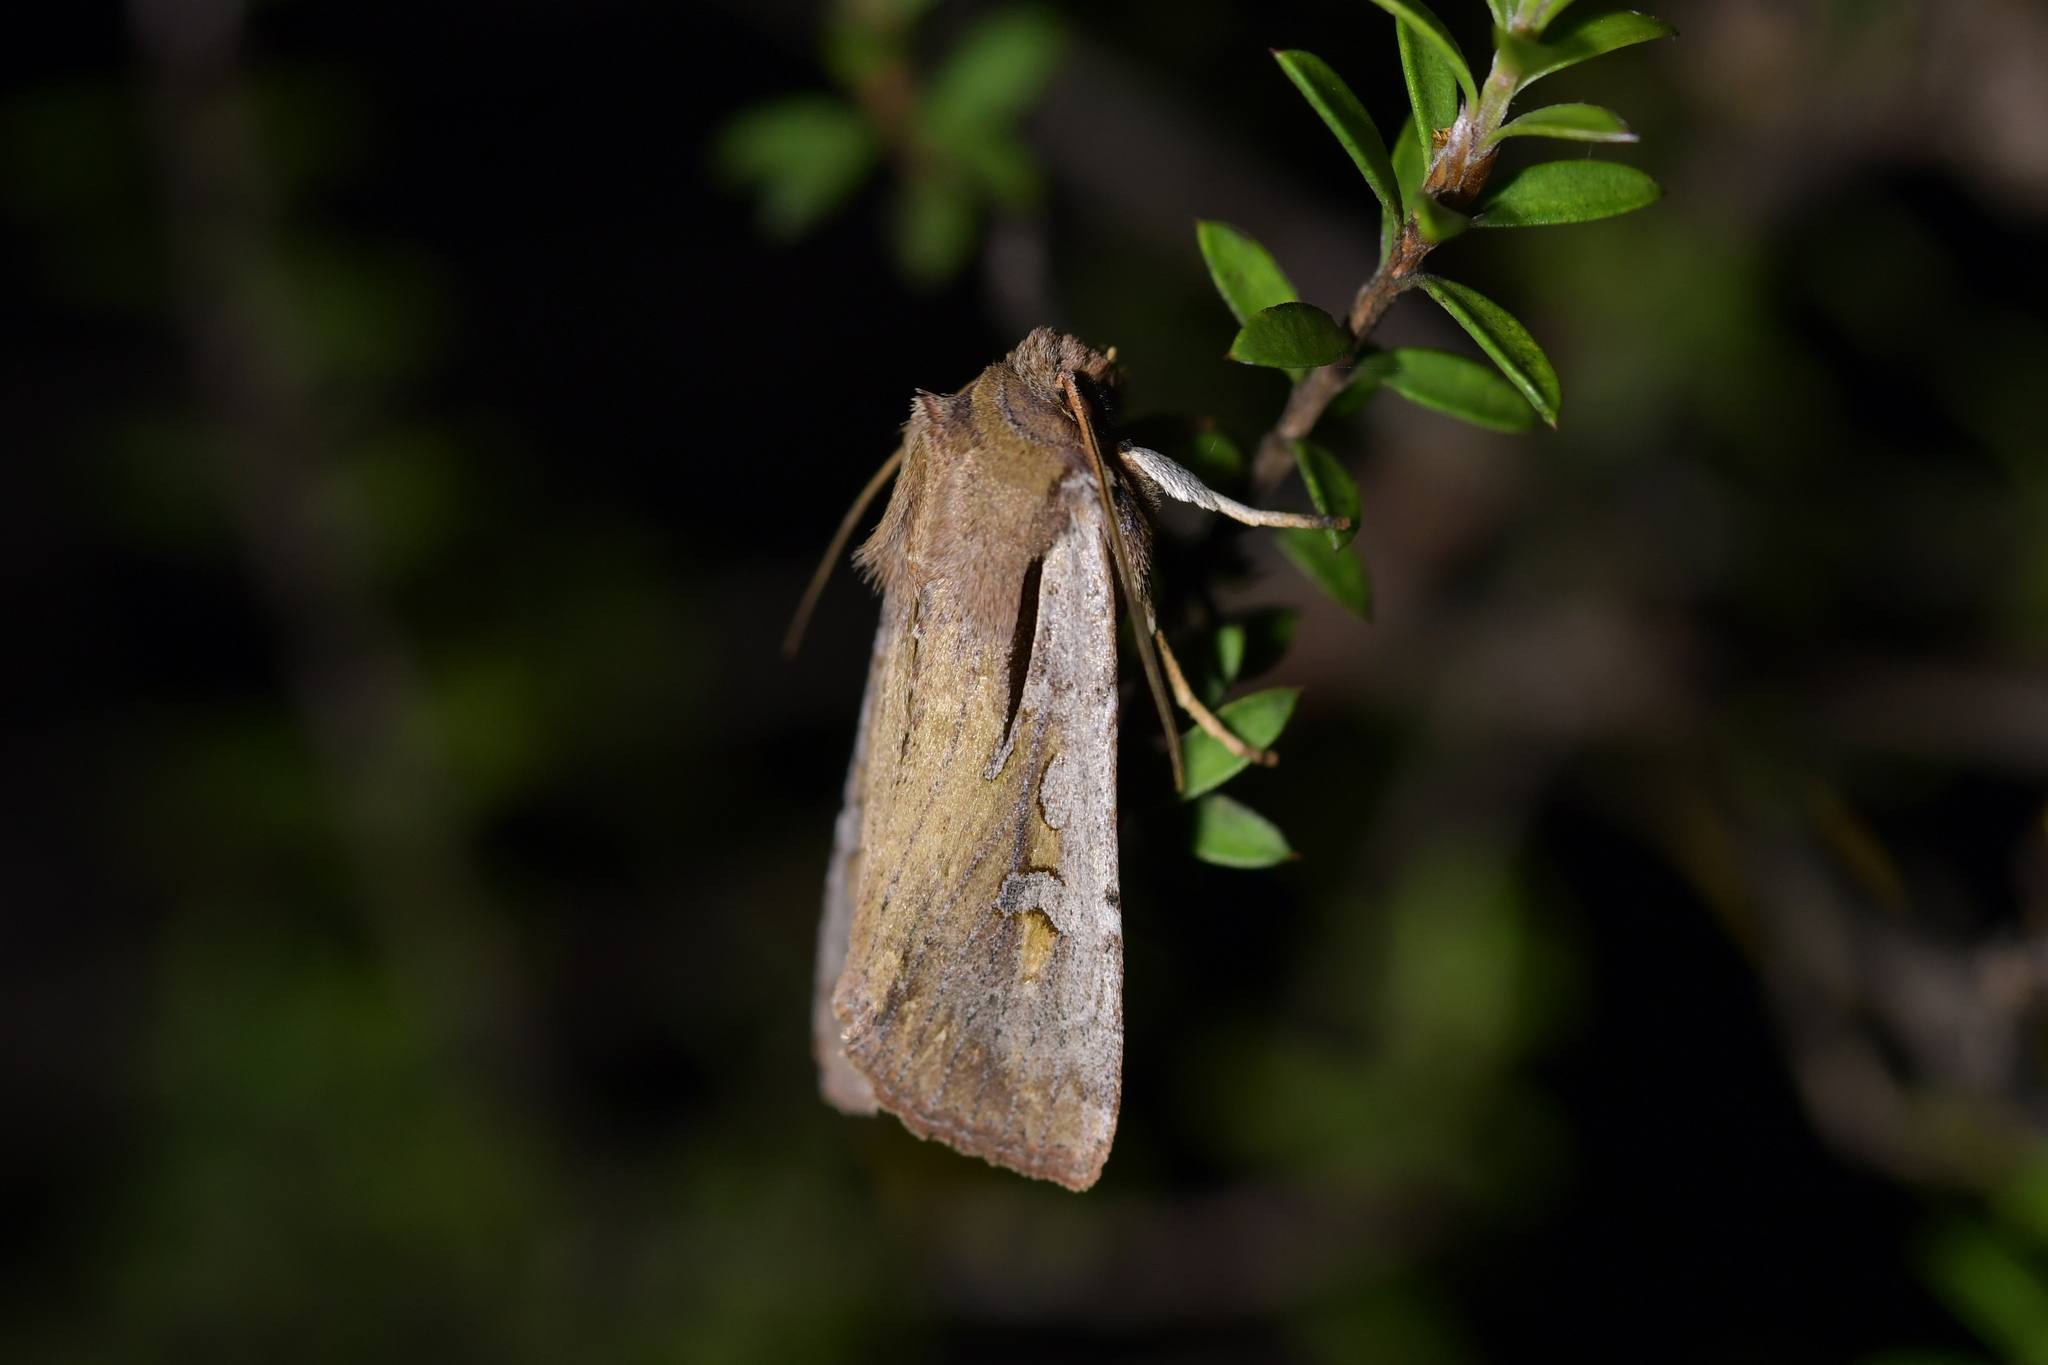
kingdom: Animalia
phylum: Arthropoda
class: Insecta
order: Lepidoptera
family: Noctuidae
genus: Ichneutica
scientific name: Ichneutica atristriga
